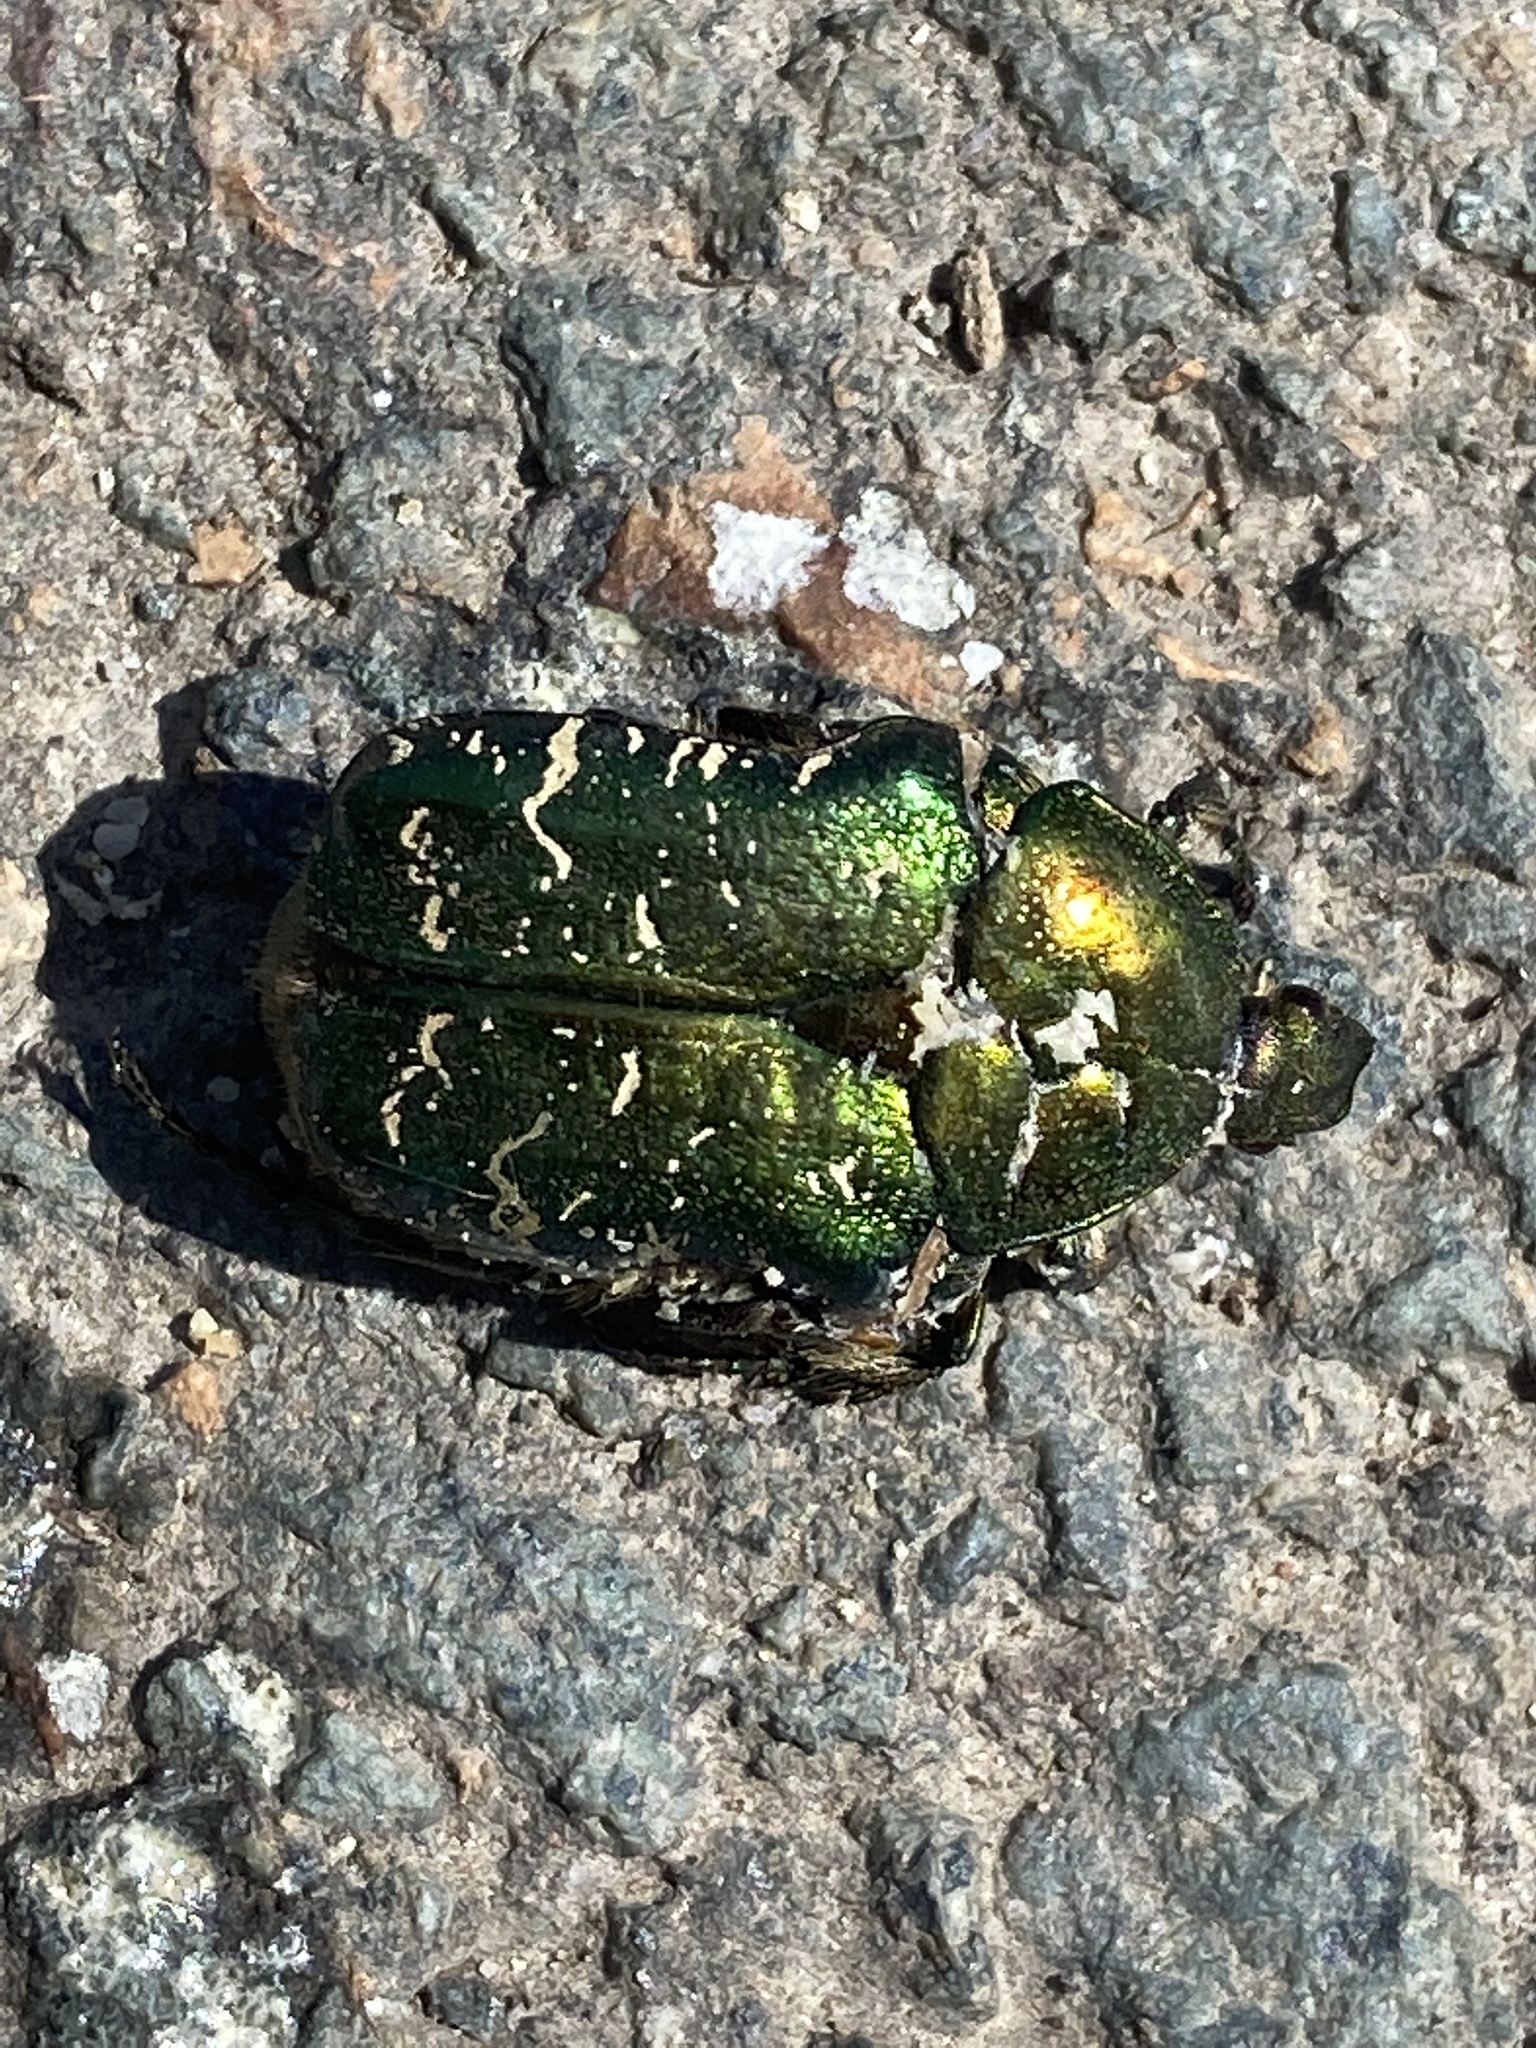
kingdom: Animalia
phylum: Arthropoda
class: Insecta
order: Coleoptera
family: Scarabaeidae
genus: Cetonia
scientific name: Cetonia aurata
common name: Rose chafer
